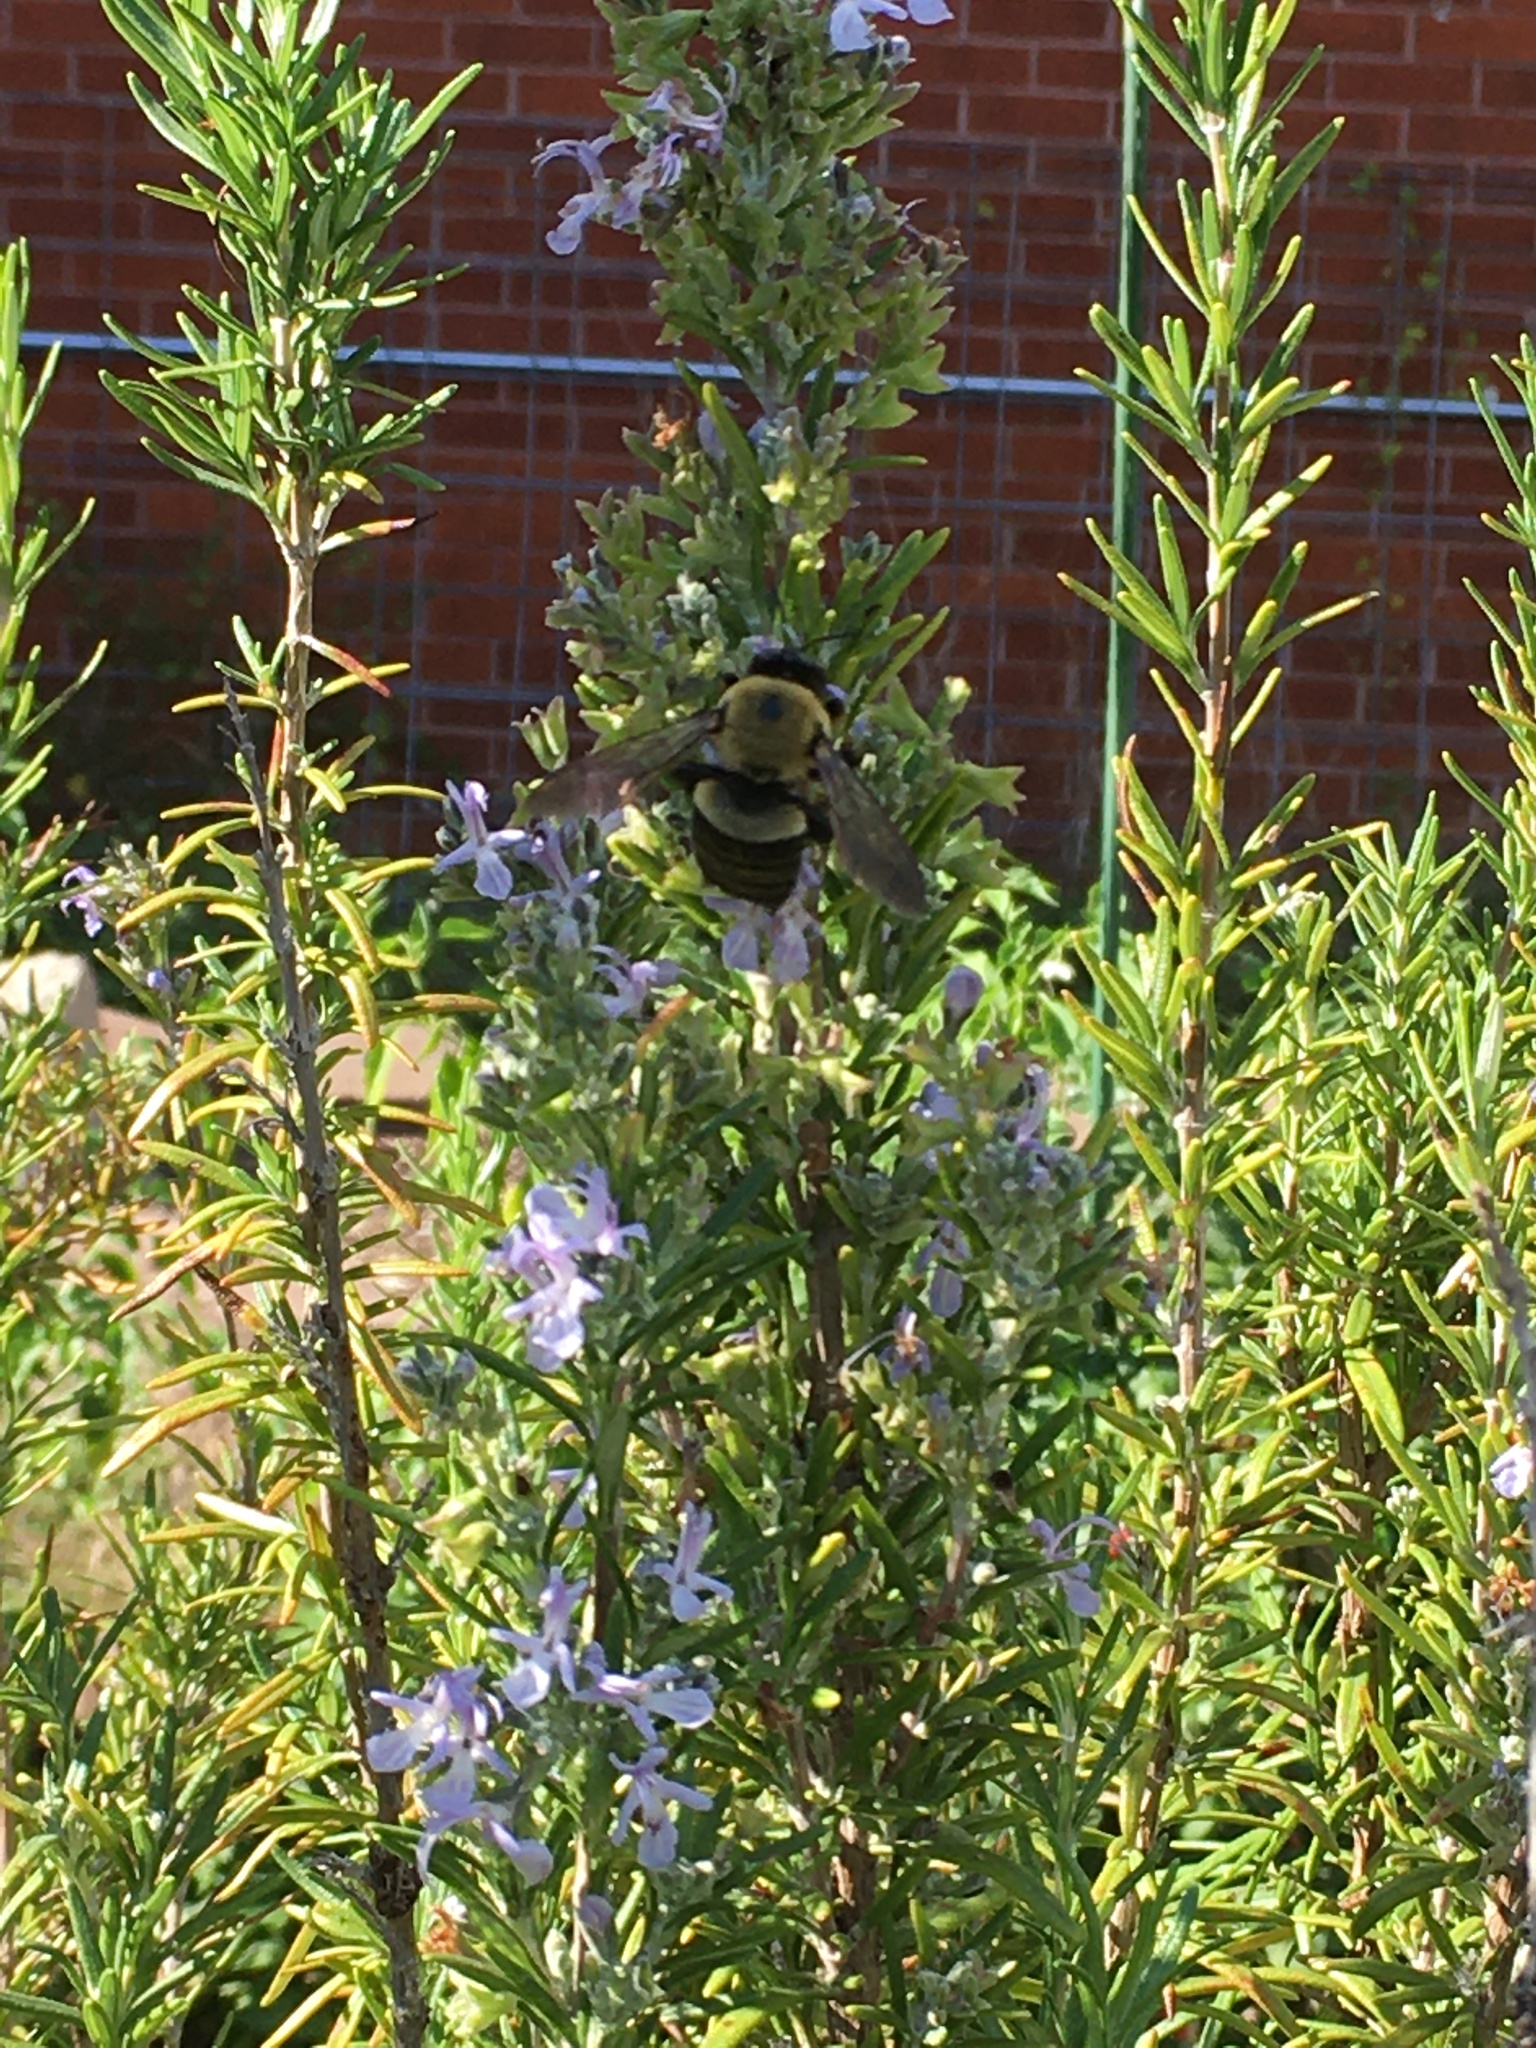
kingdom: Animalia
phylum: Arthropoda
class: Insecta
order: Hymenoptera
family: Apidae
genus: Xylocopa
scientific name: Xylocopa virginica
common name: Carpenter bee
